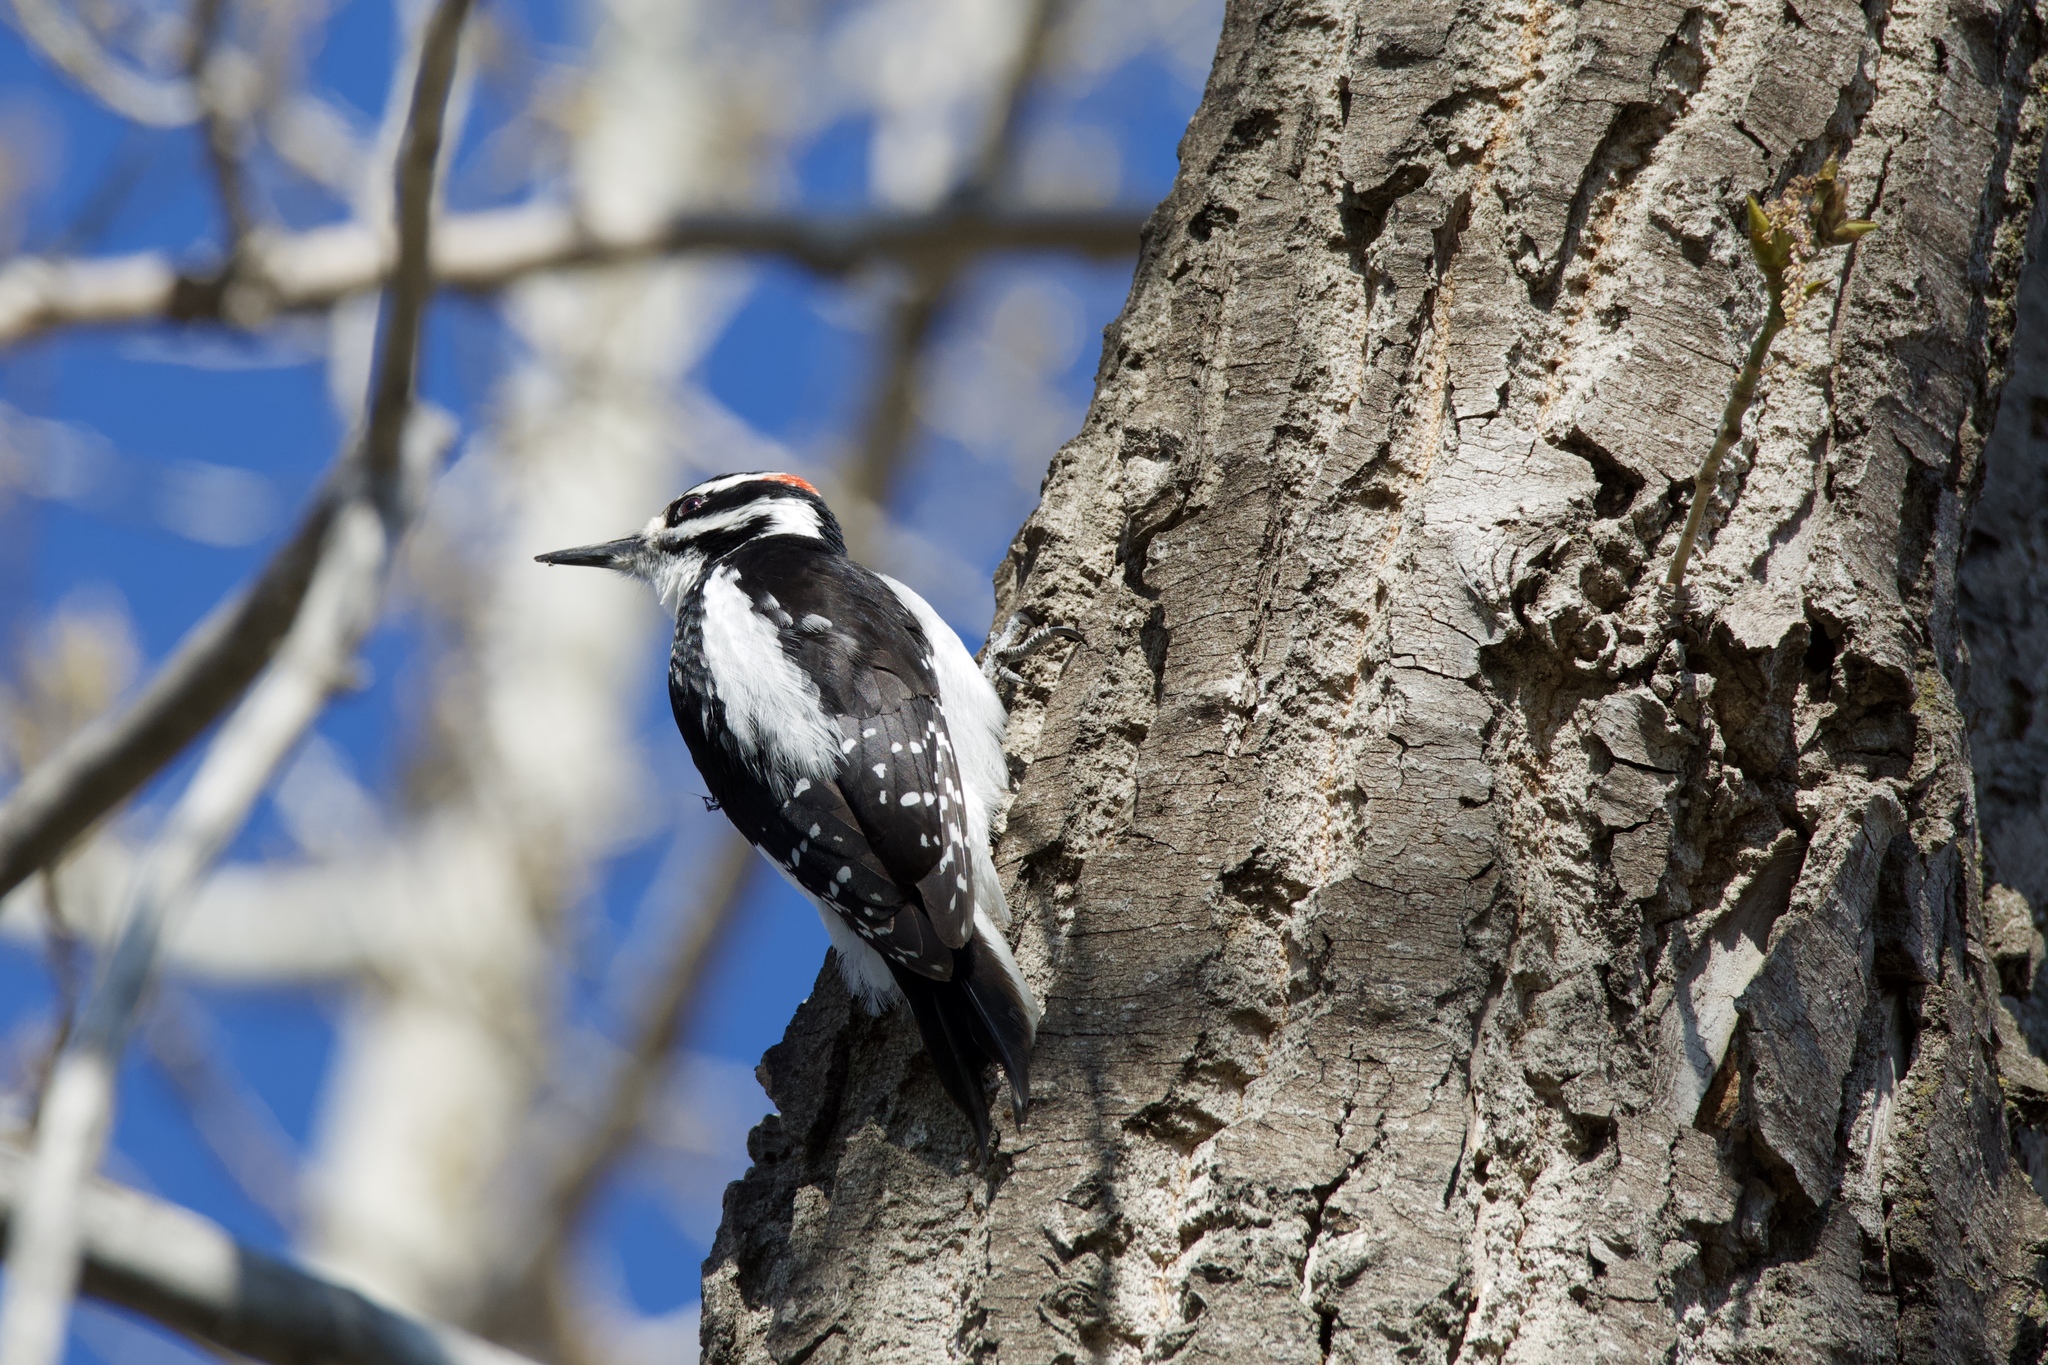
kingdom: Animalia
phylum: Chordata
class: Aves
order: Piciformes
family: Picidae
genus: Leuconotopicus
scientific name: Leuconotopicus villosus
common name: Hairy woodpecker
